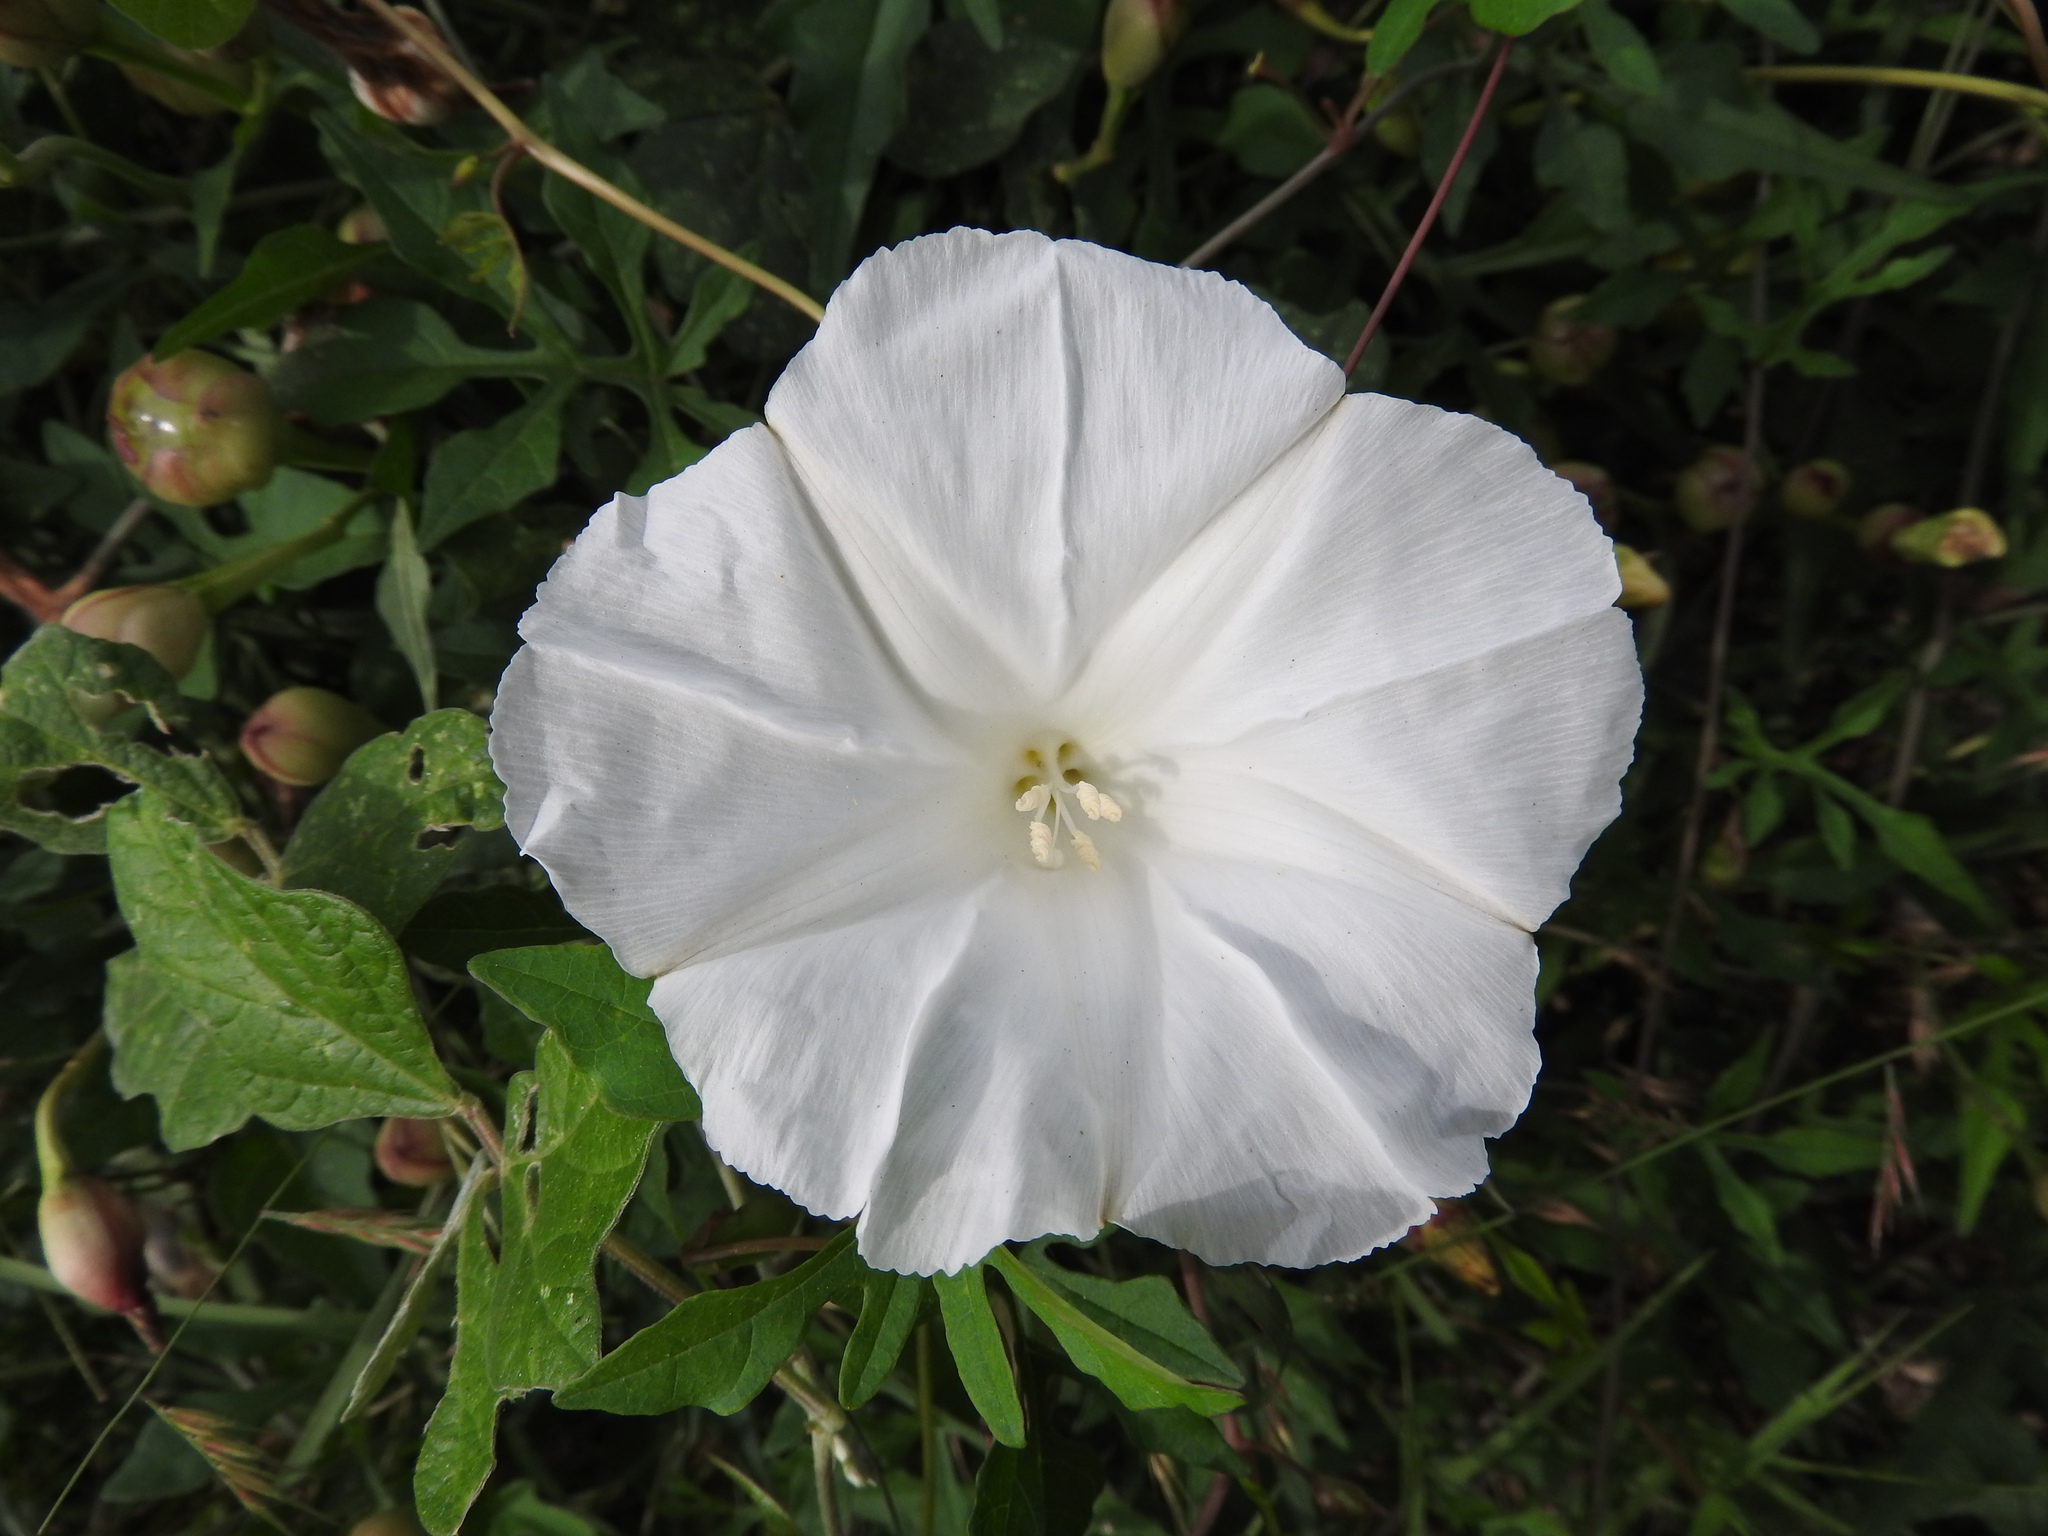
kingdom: Plantae
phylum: Tracheophyta
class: Magnoliopsida
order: Solanales
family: Convolvulaceae
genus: Operculina
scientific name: Operculina pinnatifida
